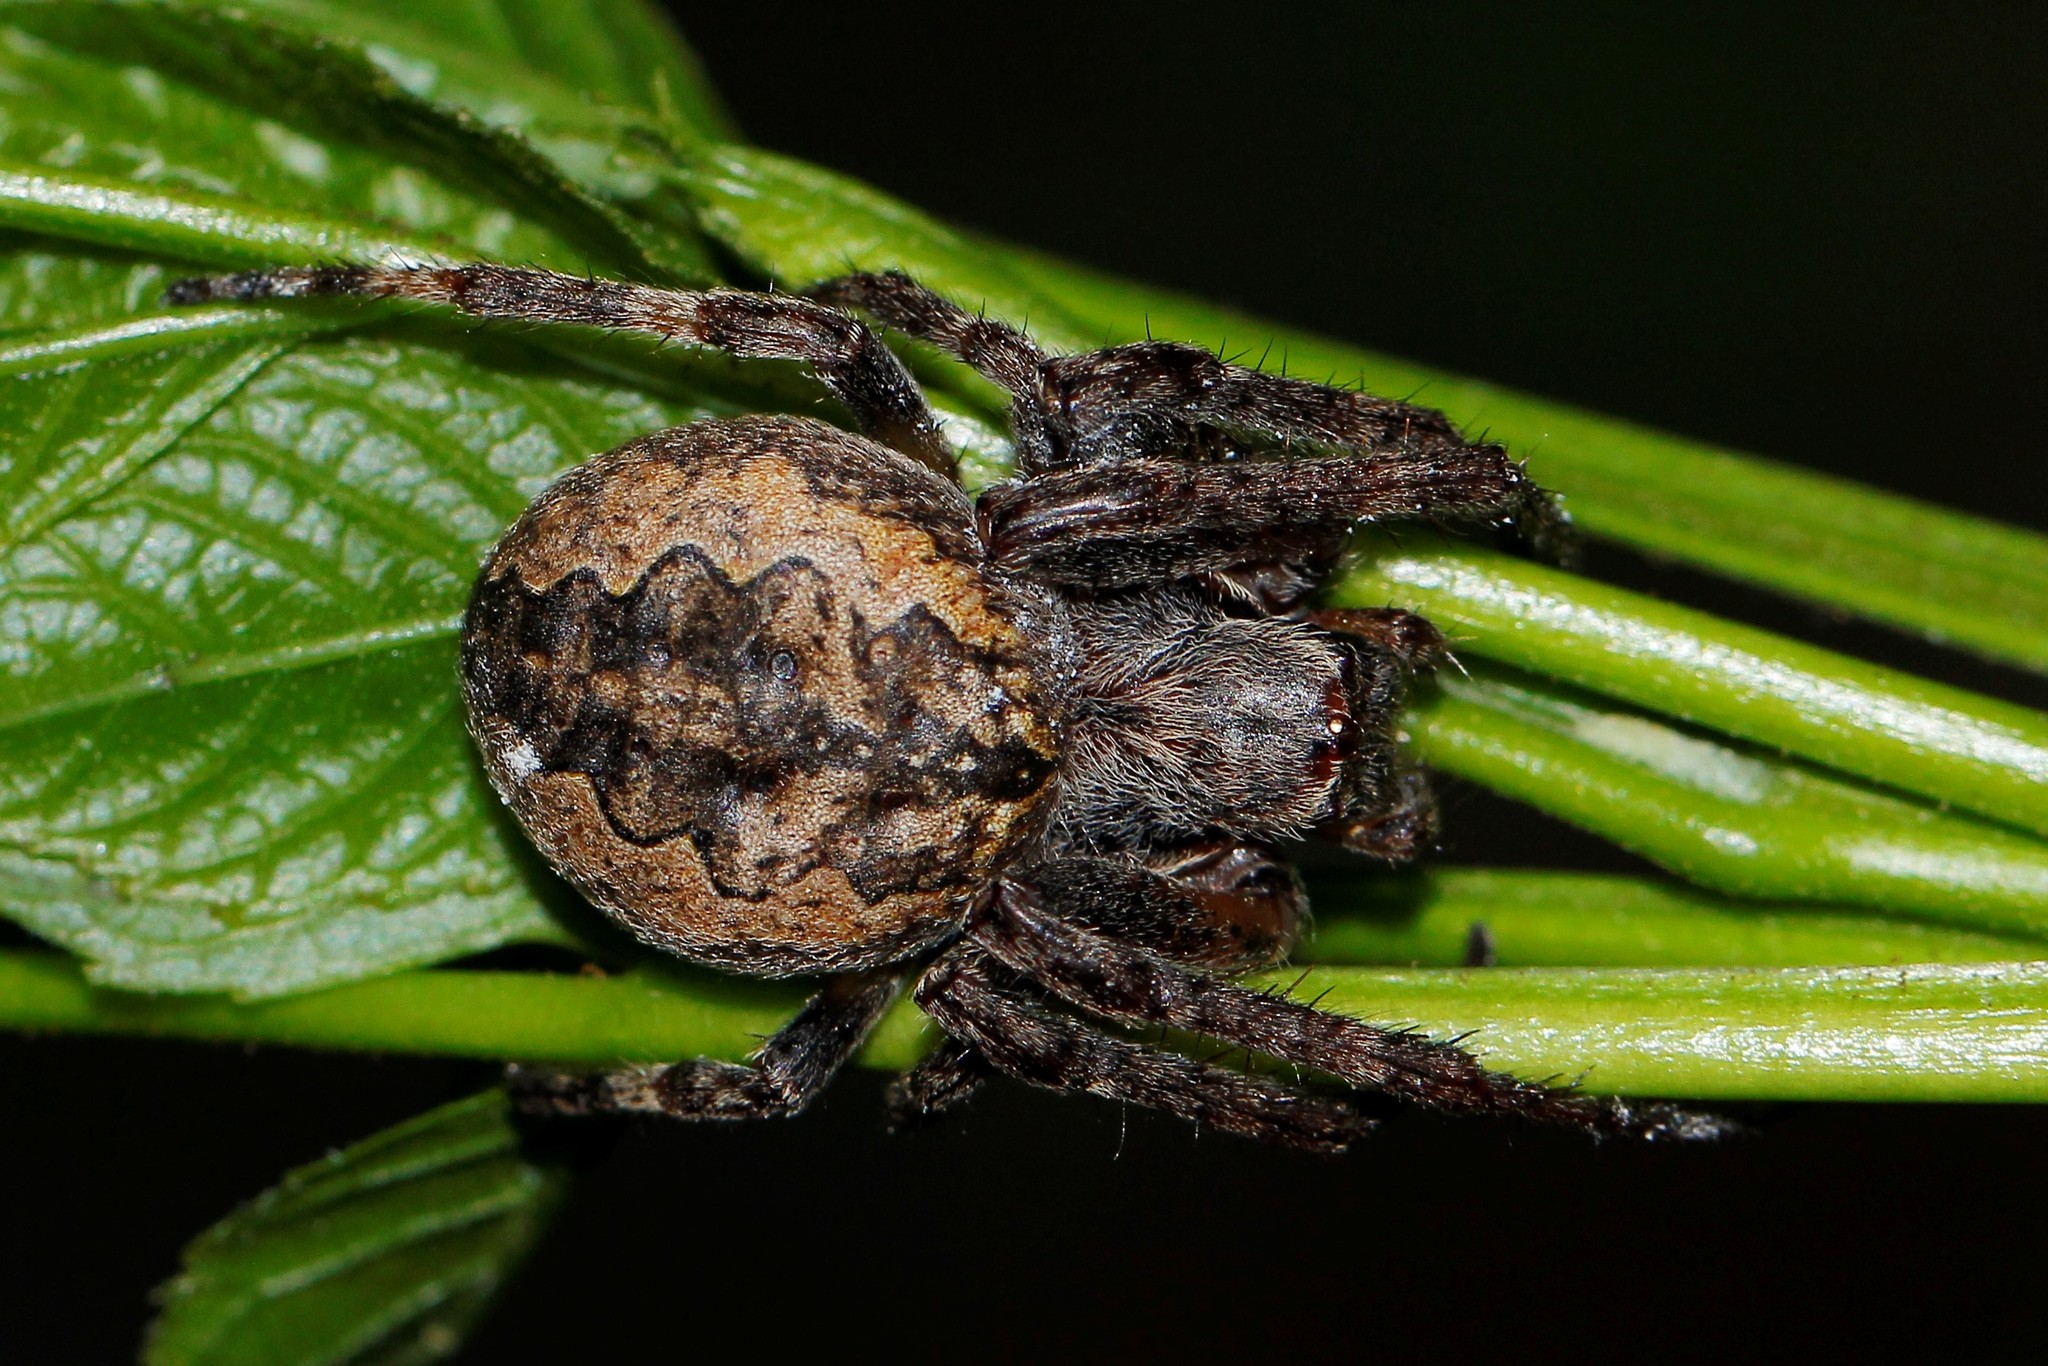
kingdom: Animalia
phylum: Arthropoda
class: Arachnida
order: Araneae
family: Araneidae
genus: Larinioides
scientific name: Larinioides ixobolus
